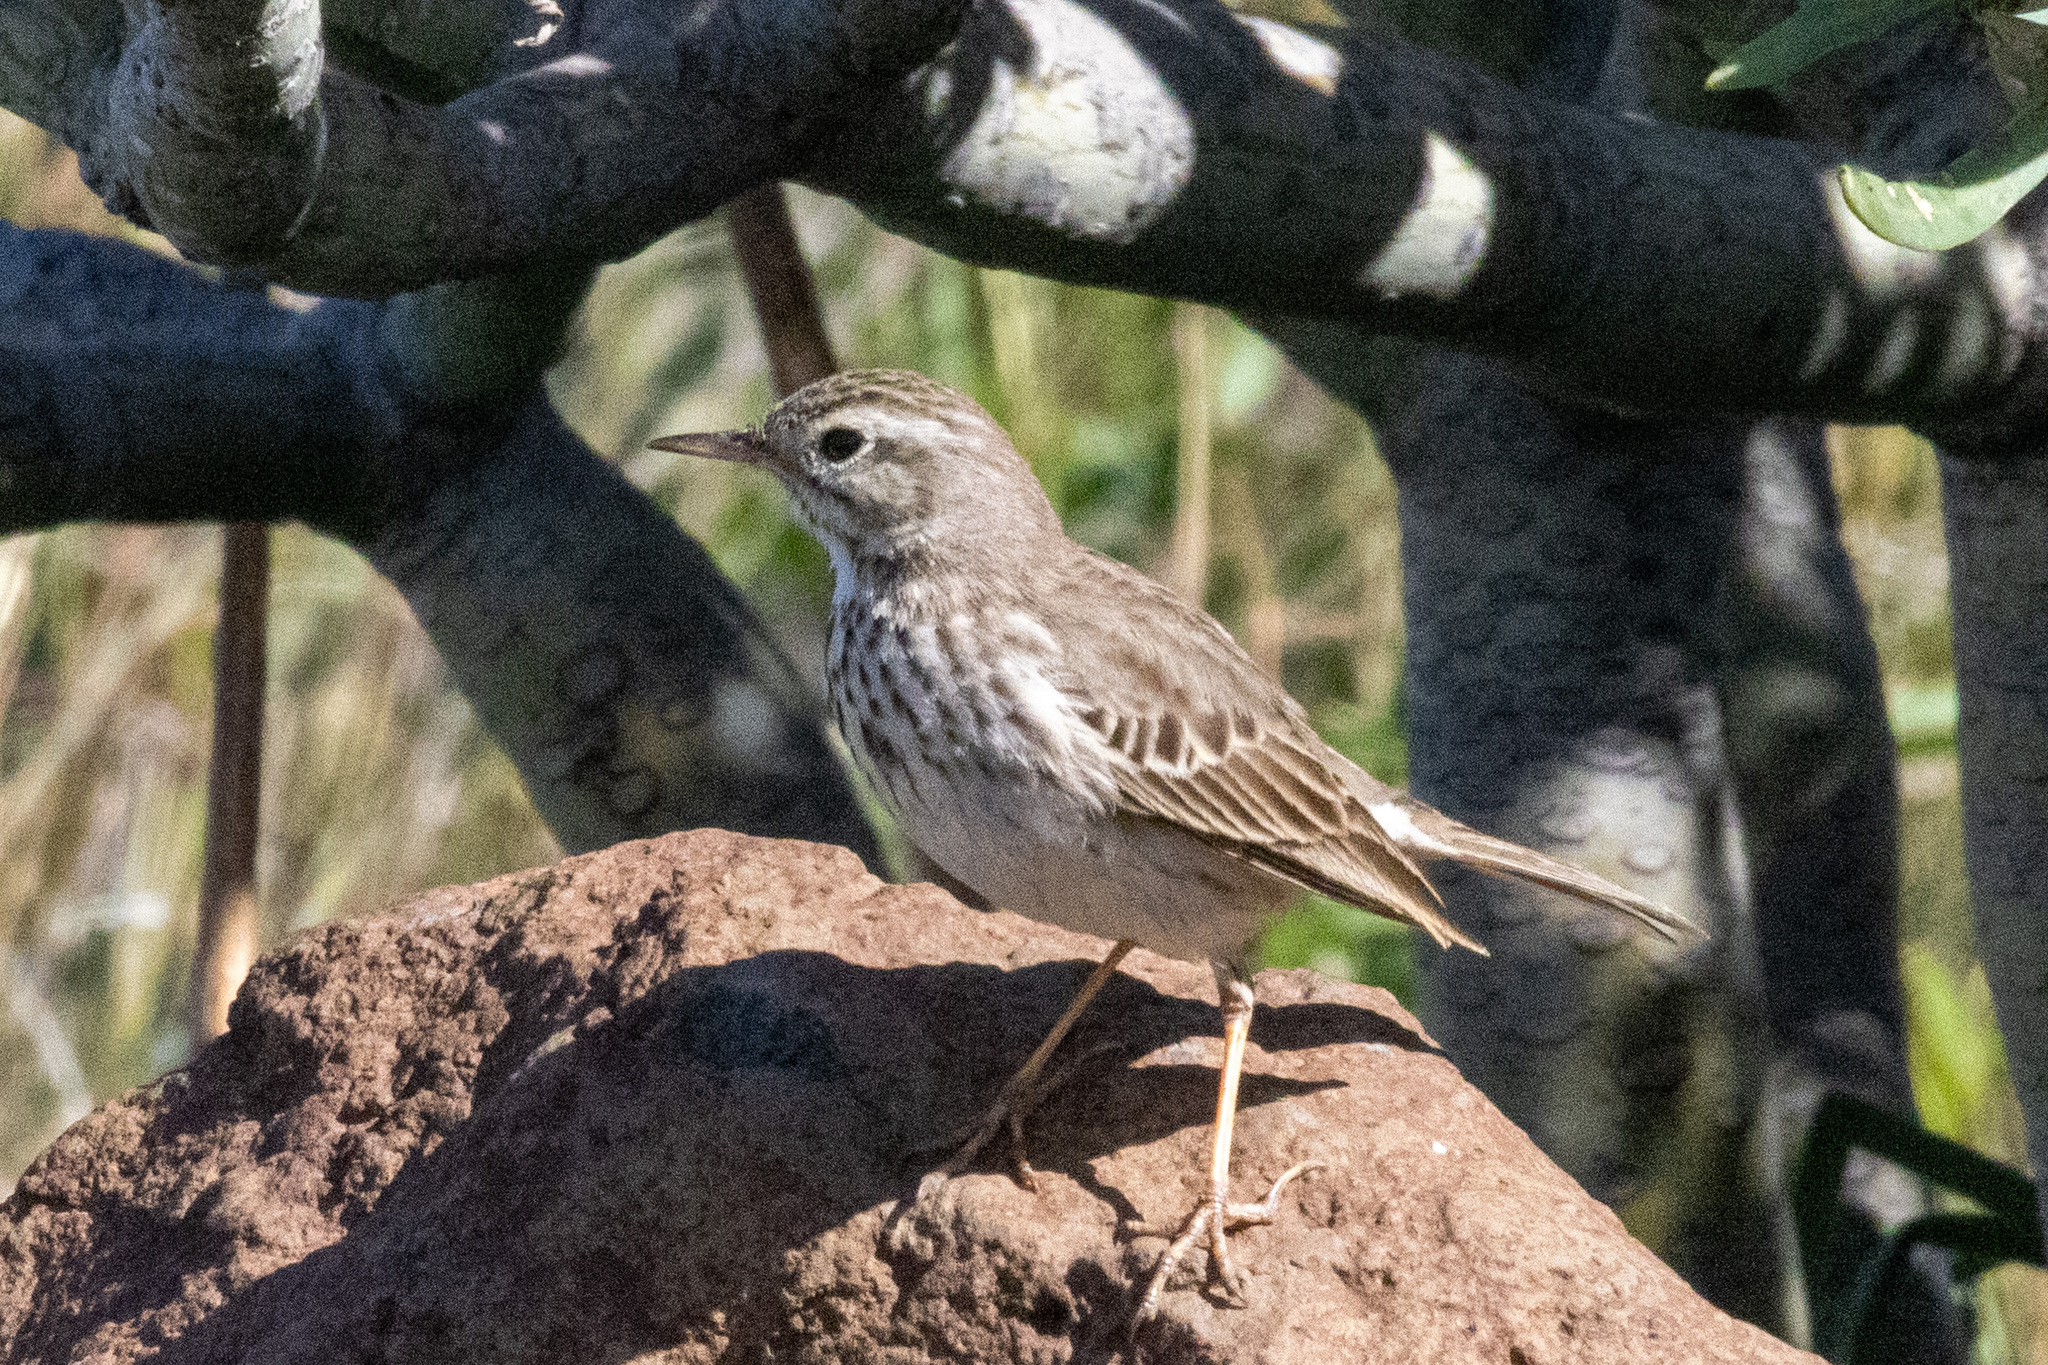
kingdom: Animalia
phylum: Chordata
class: Aves
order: Passeriformes
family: Motacillidae
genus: Anthus
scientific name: Anthus berthelotii
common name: Berthelot's pipit
